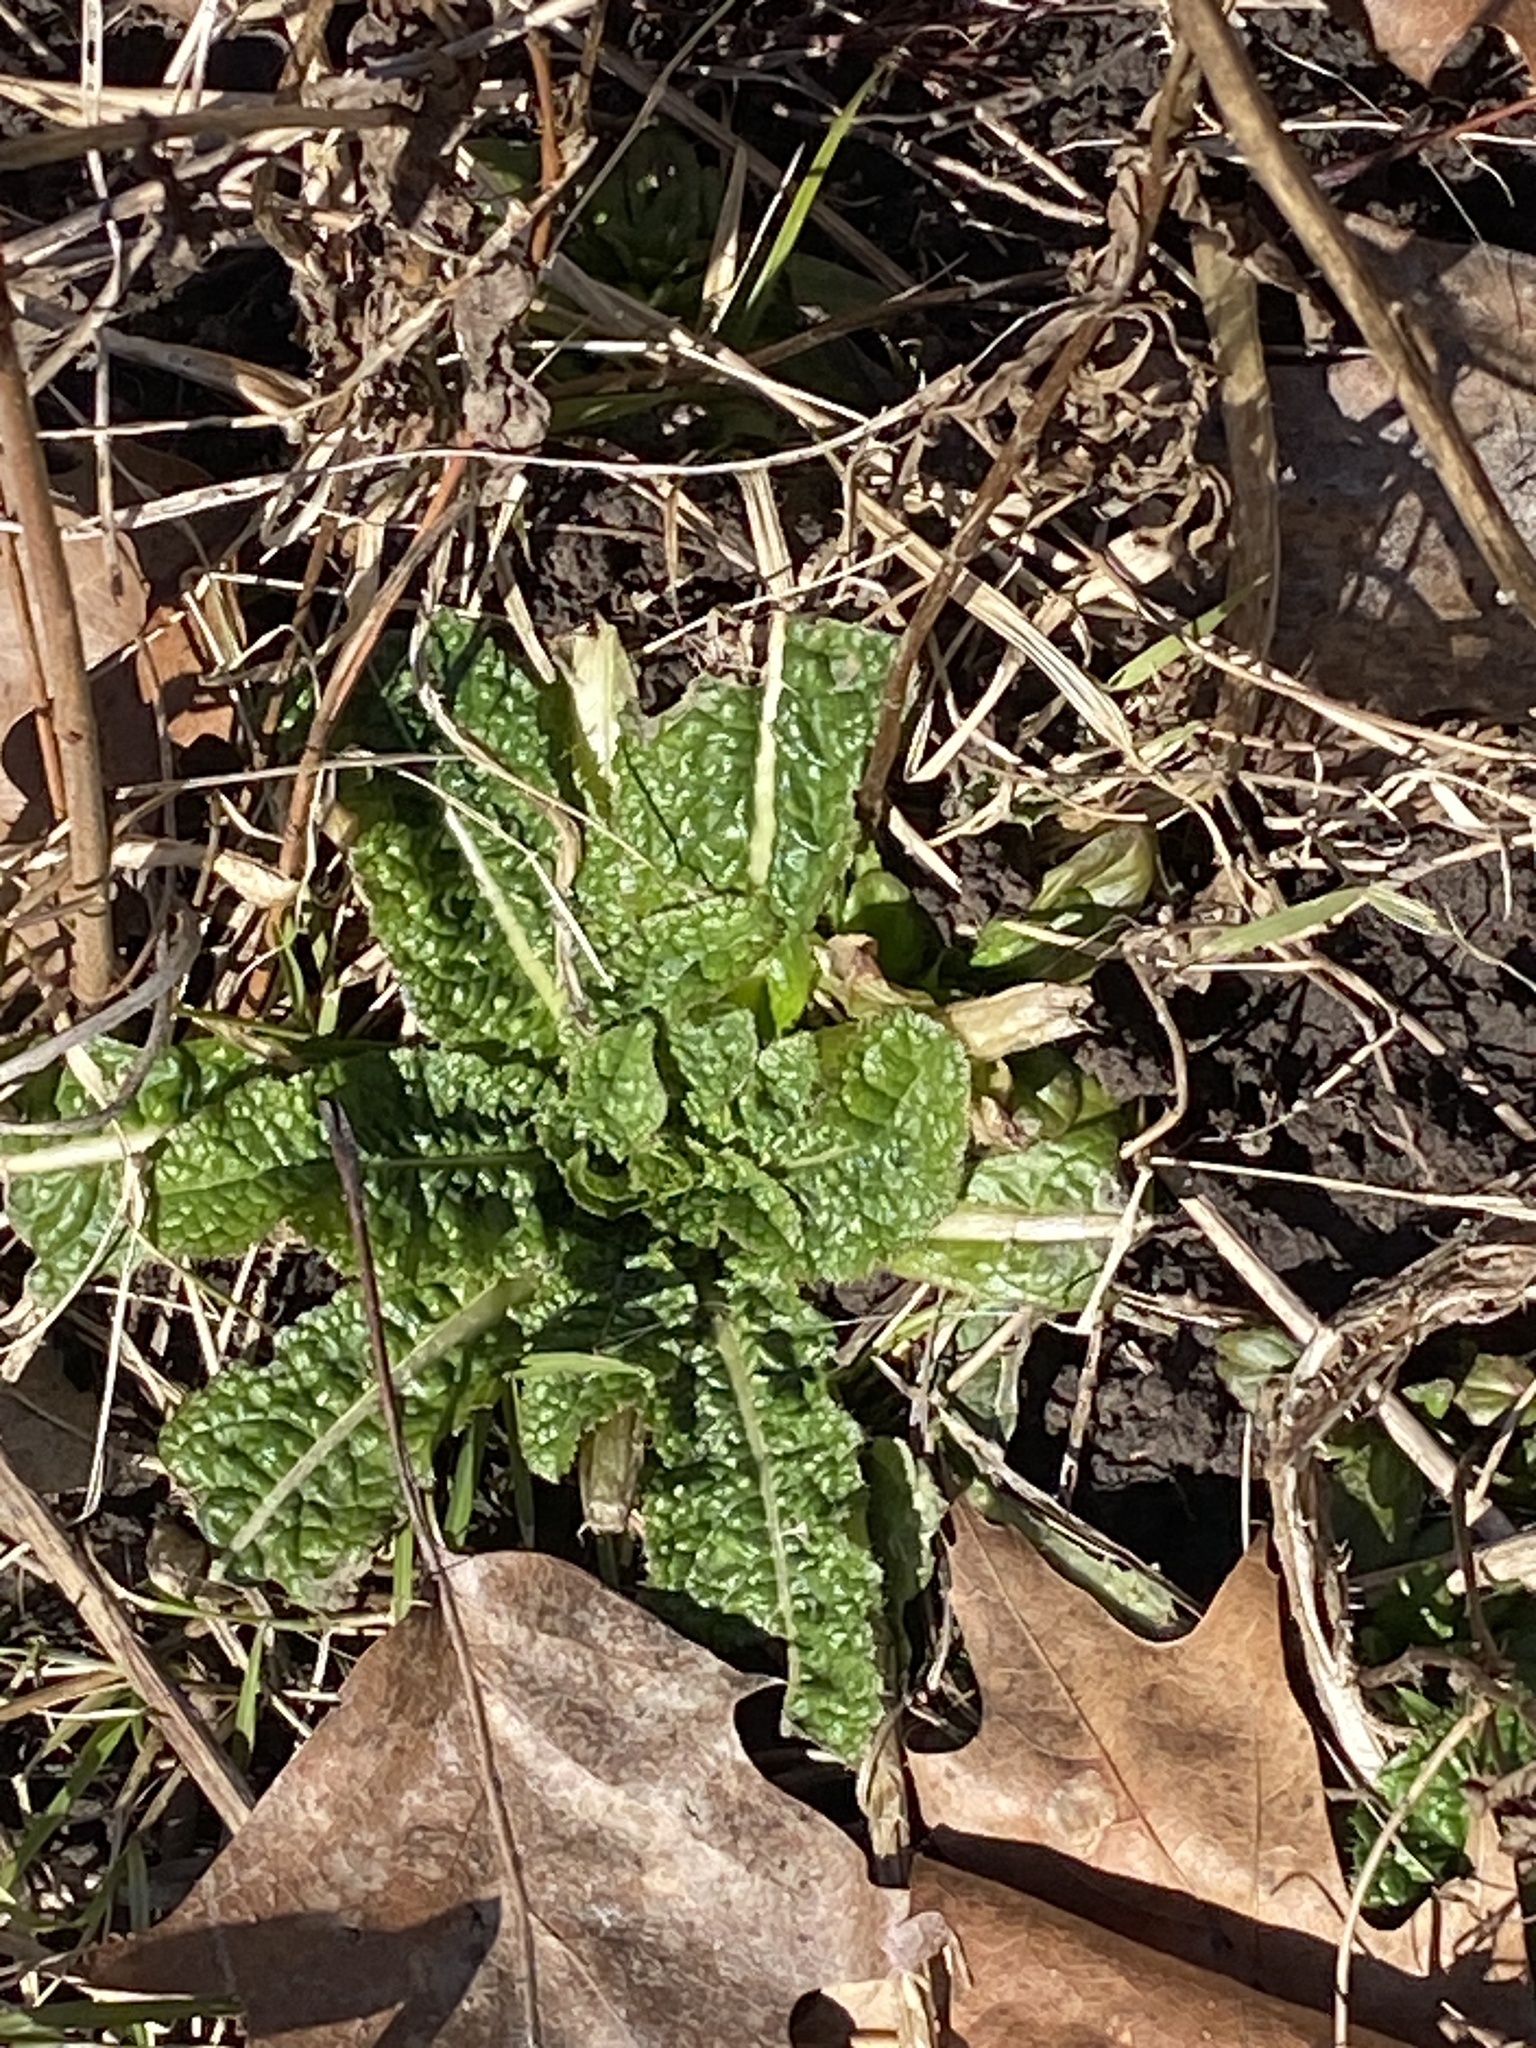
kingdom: Plantae
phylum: Tracheophyta
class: Magnoliopsida
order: Dipsacales
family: Caprifoliaceae
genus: Dipsacus
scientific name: Dipsacus fullonum
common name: Teasel
